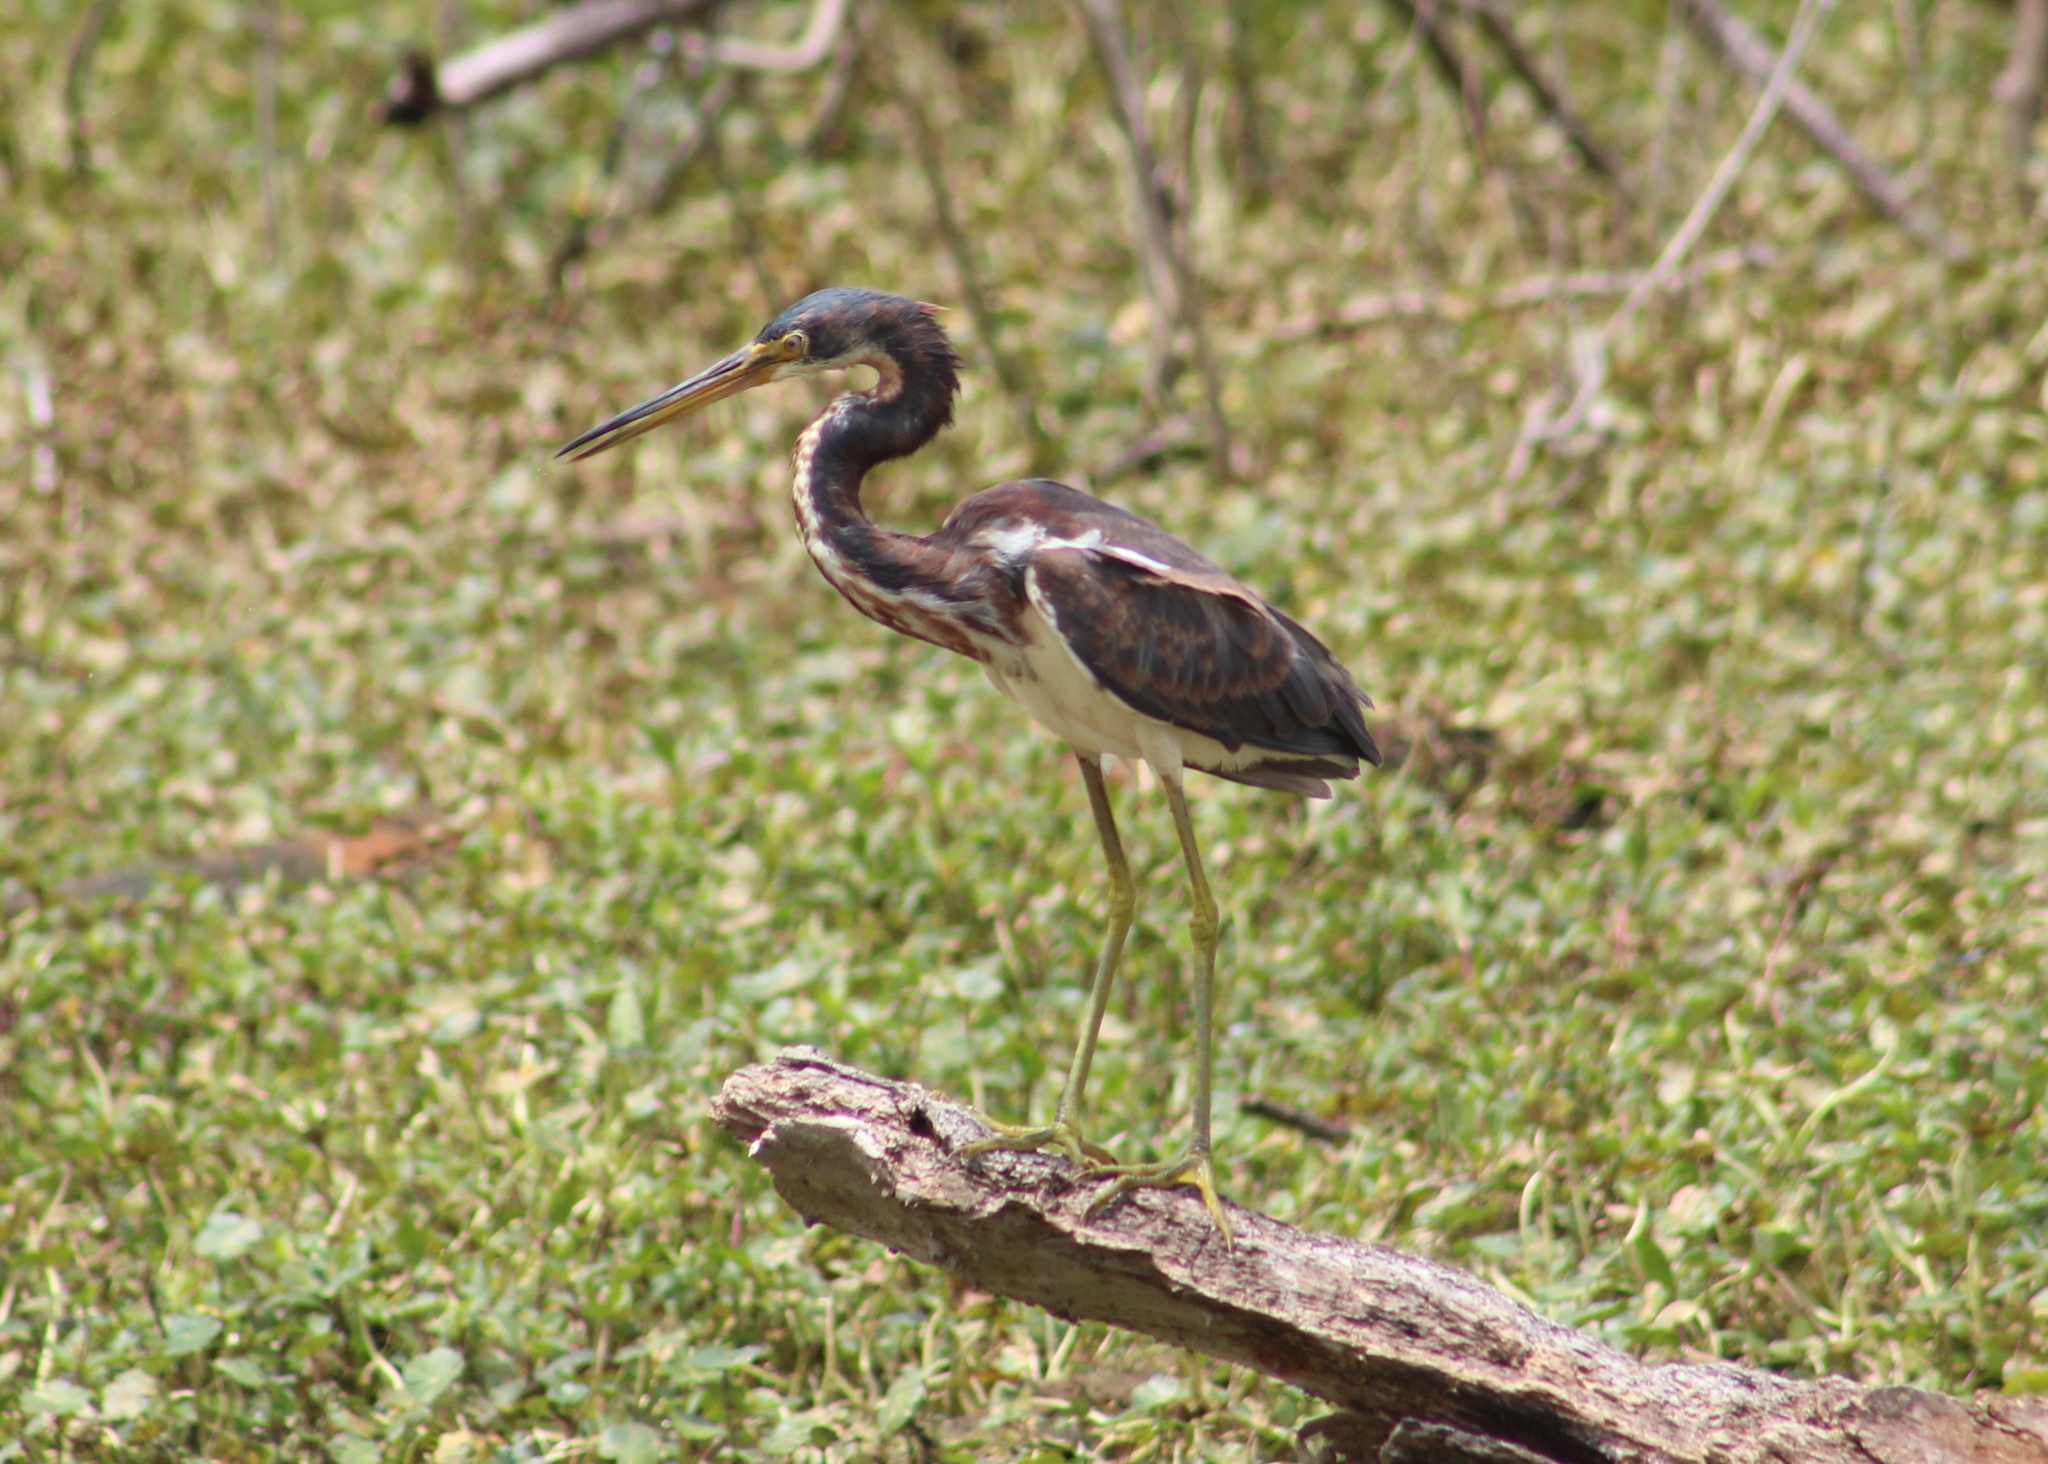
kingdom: Animalia
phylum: Chordata
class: Aves
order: Pelecaniformes
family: Ardeidae
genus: Egretta
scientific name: Egretta tricolor
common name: Tricolored heron
